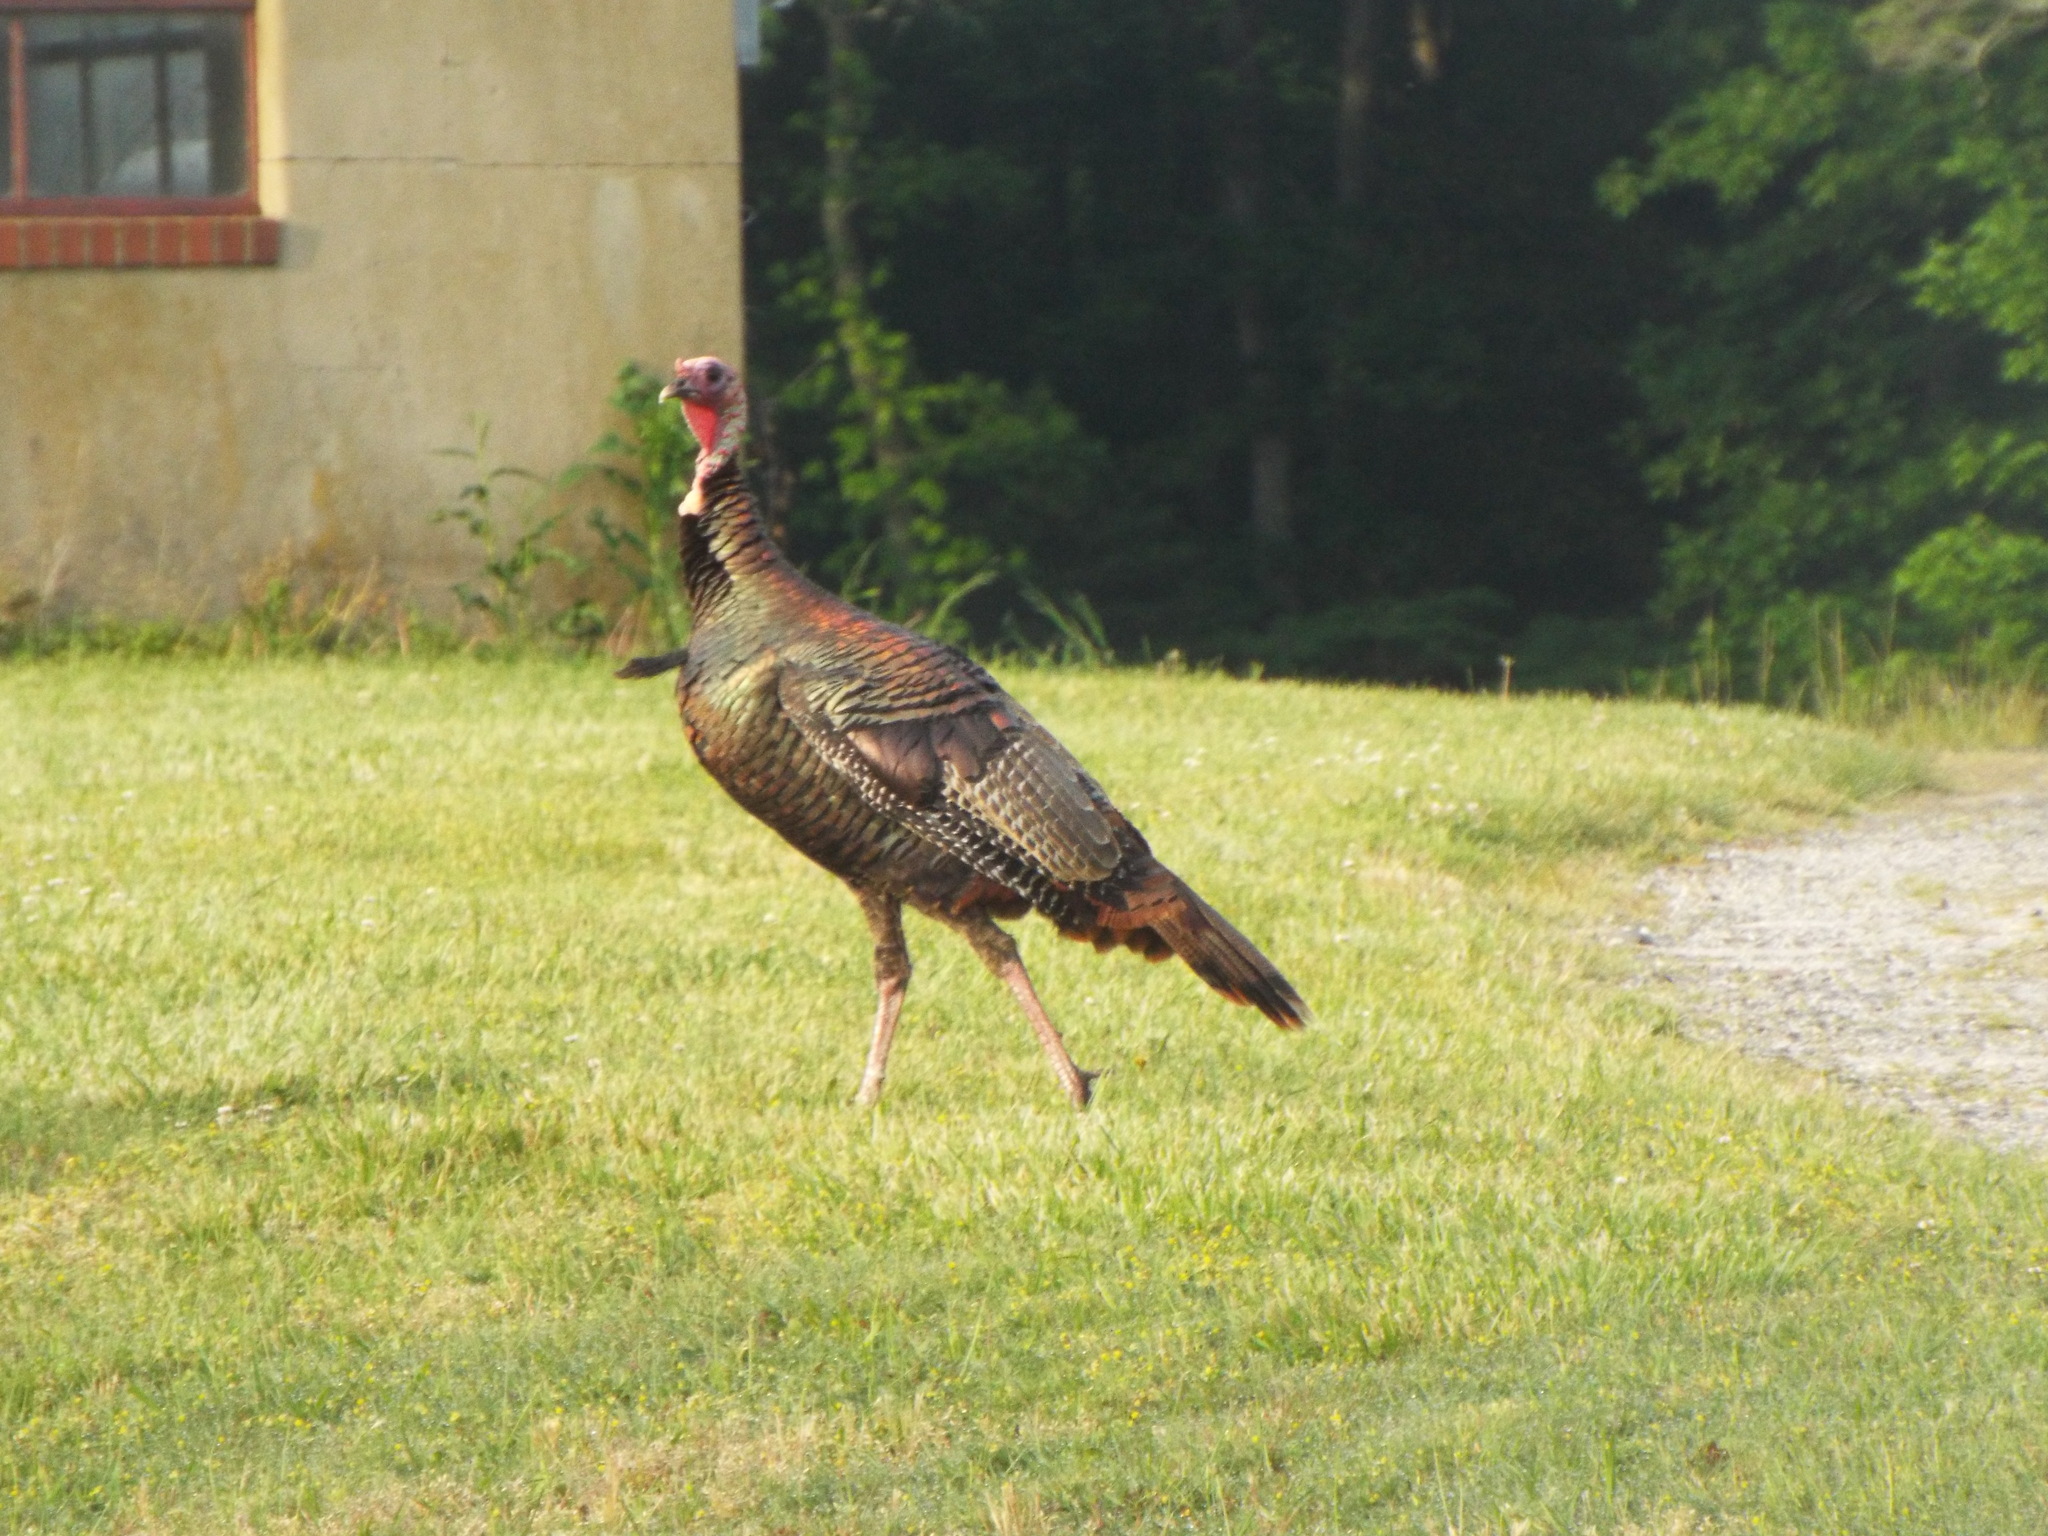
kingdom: Animalia
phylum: Chordata
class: Aves
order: Galliformes
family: Phasianidae
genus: Meleagris
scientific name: Meleagris gallopavo
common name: Wild turkey
